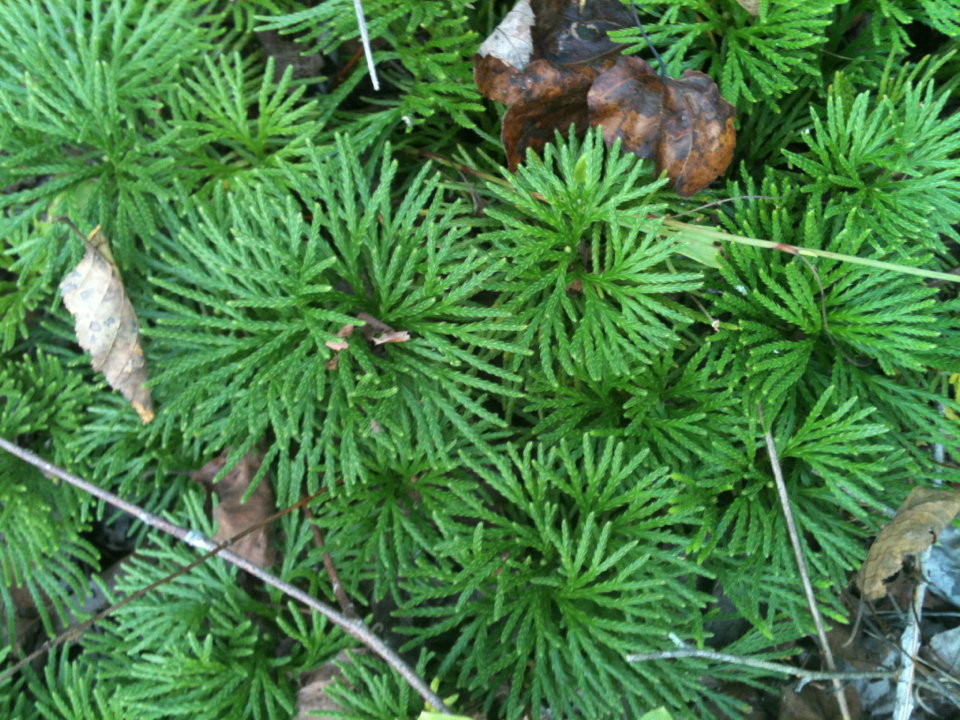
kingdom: Plantae
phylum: Tracheophyta
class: Lycopodiopsida
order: Lycopodiales
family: Lycopodiaceae
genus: Diphasiastrum
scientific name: Diphasiastrum digitatum
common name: Southern running-pine
